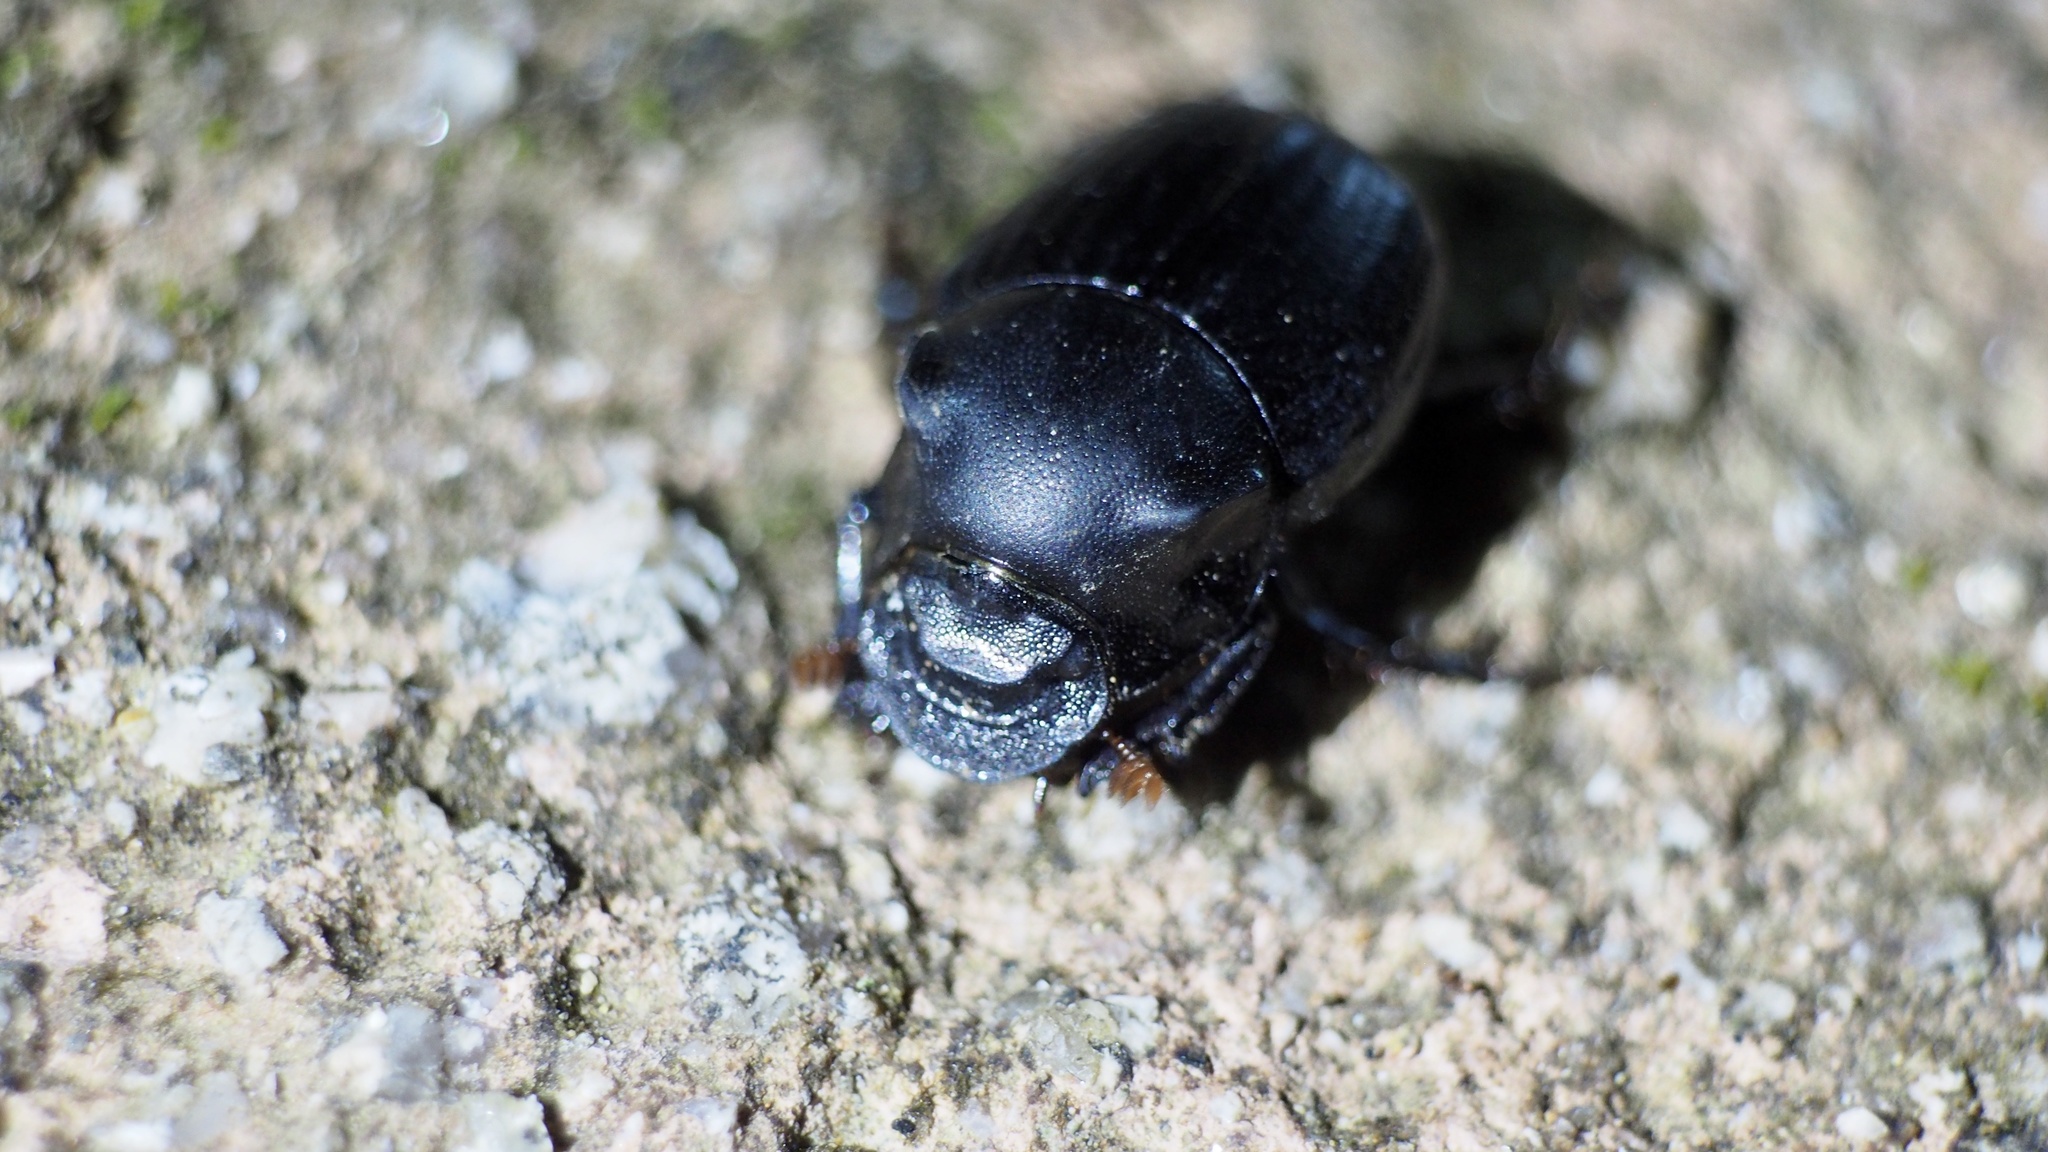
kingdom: Animalia
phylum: Arthropoda
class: Insecta
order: Coleoptera
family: Scarabaeidae
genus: Onthophagus
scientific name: Onthophagus lenzii
